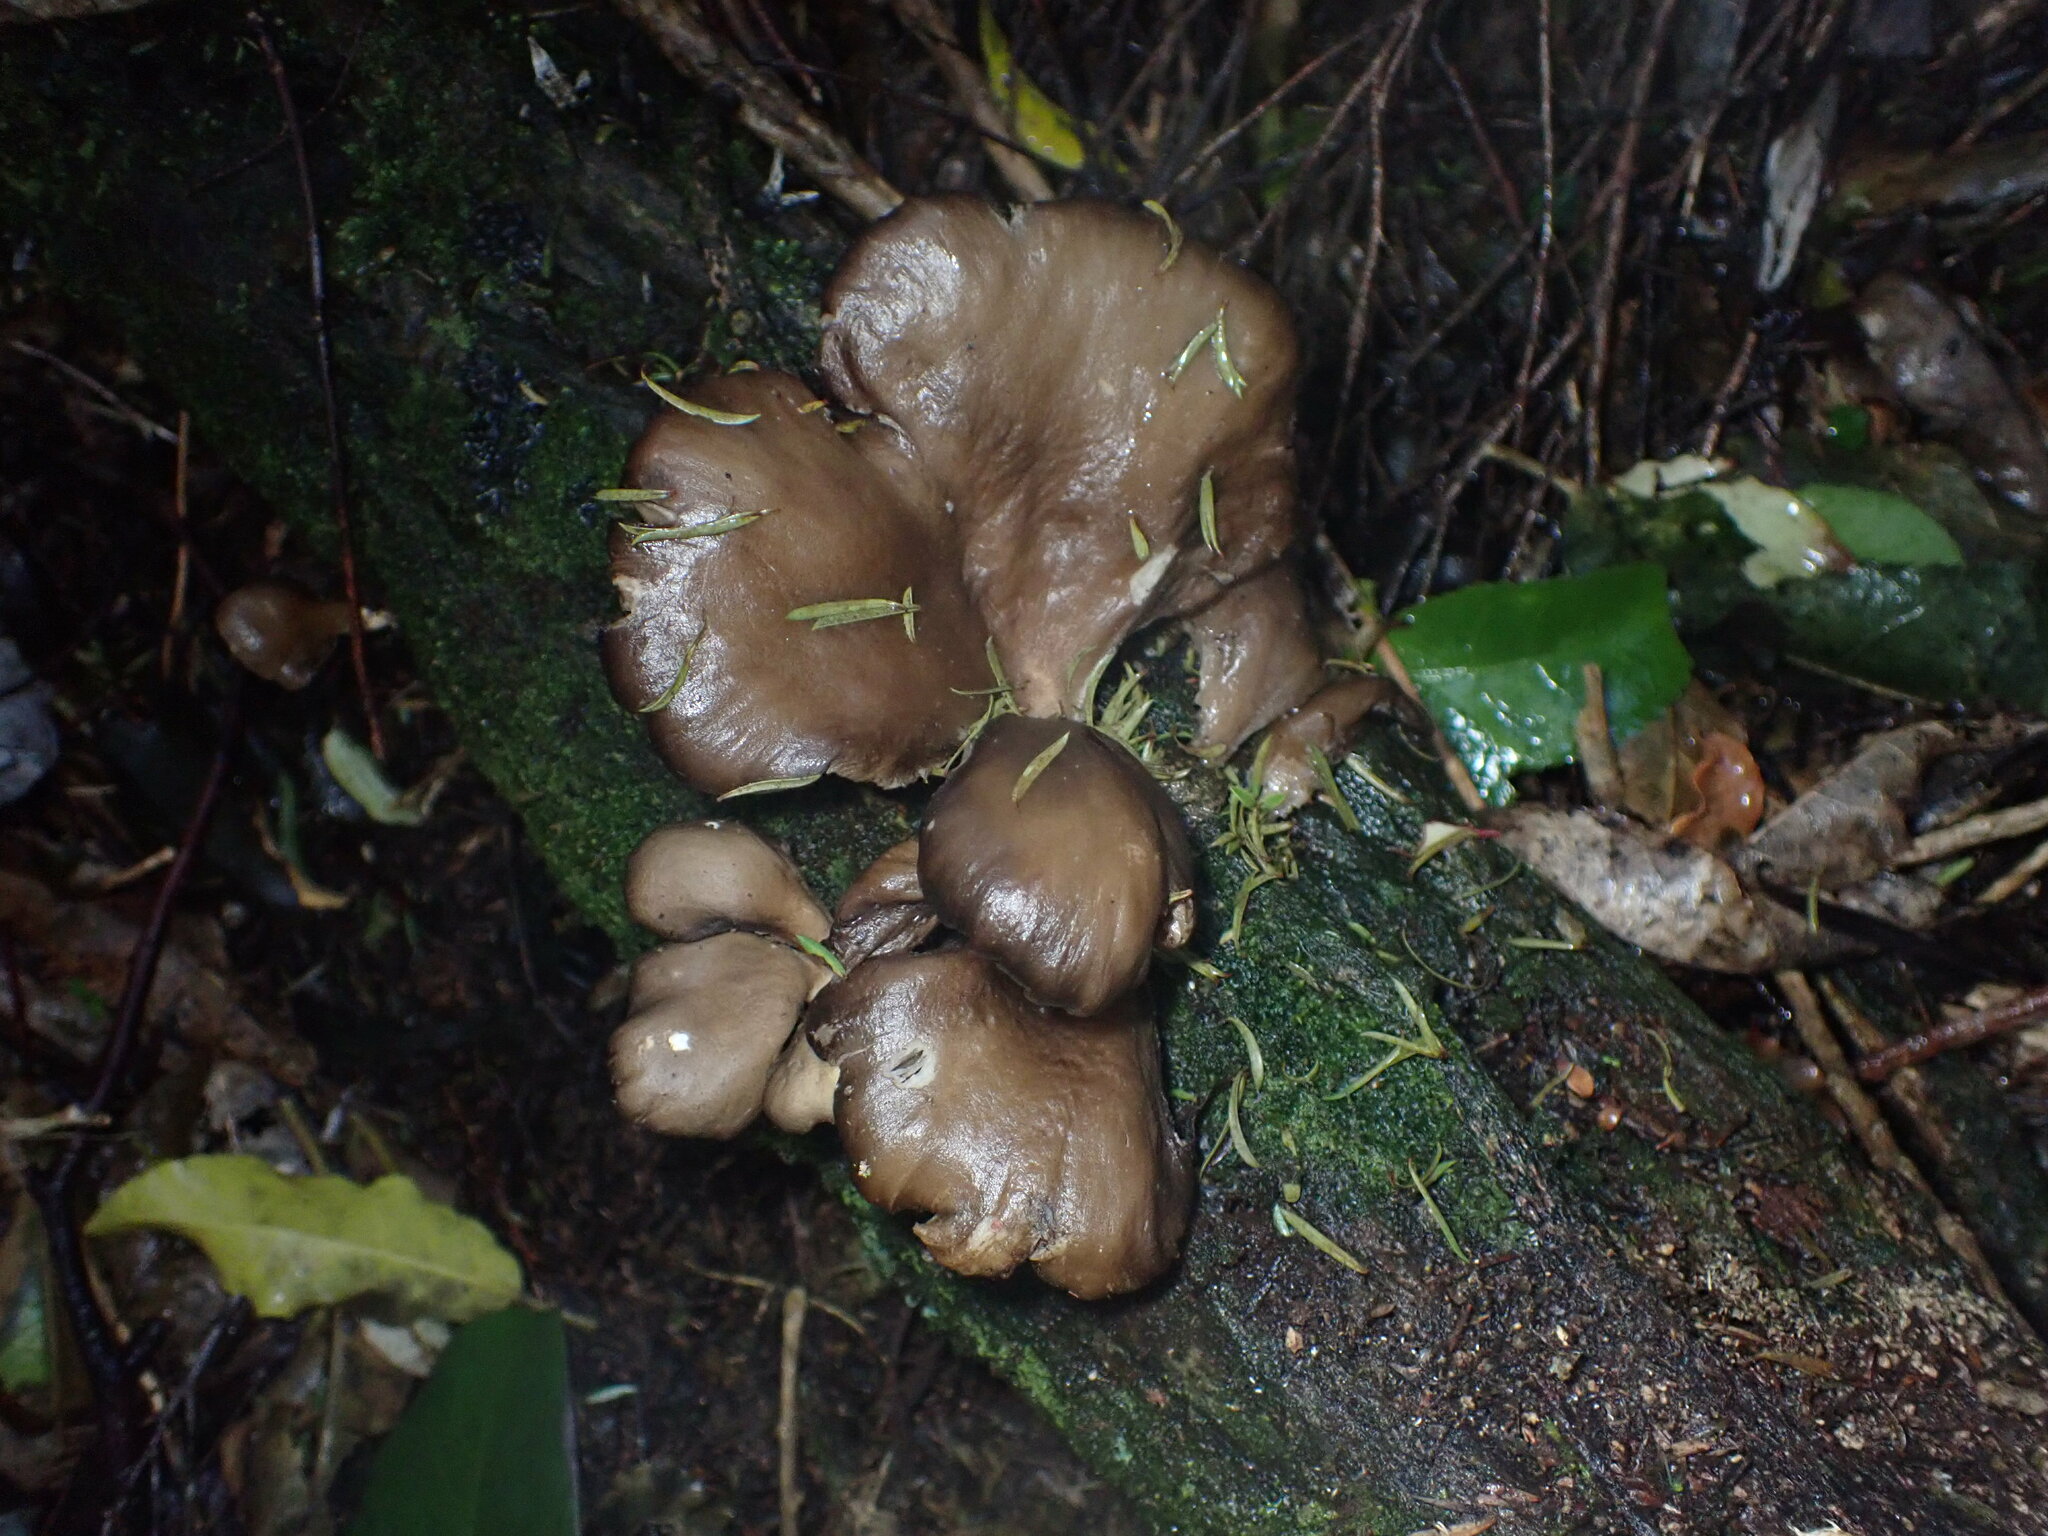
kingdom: Fungi
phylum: Basidiomycota
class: Agaricomycetes
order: Agaricales
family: Pleurotaceae
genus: Pleurotus
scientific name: Pleurotus purpureo-olivaceus
